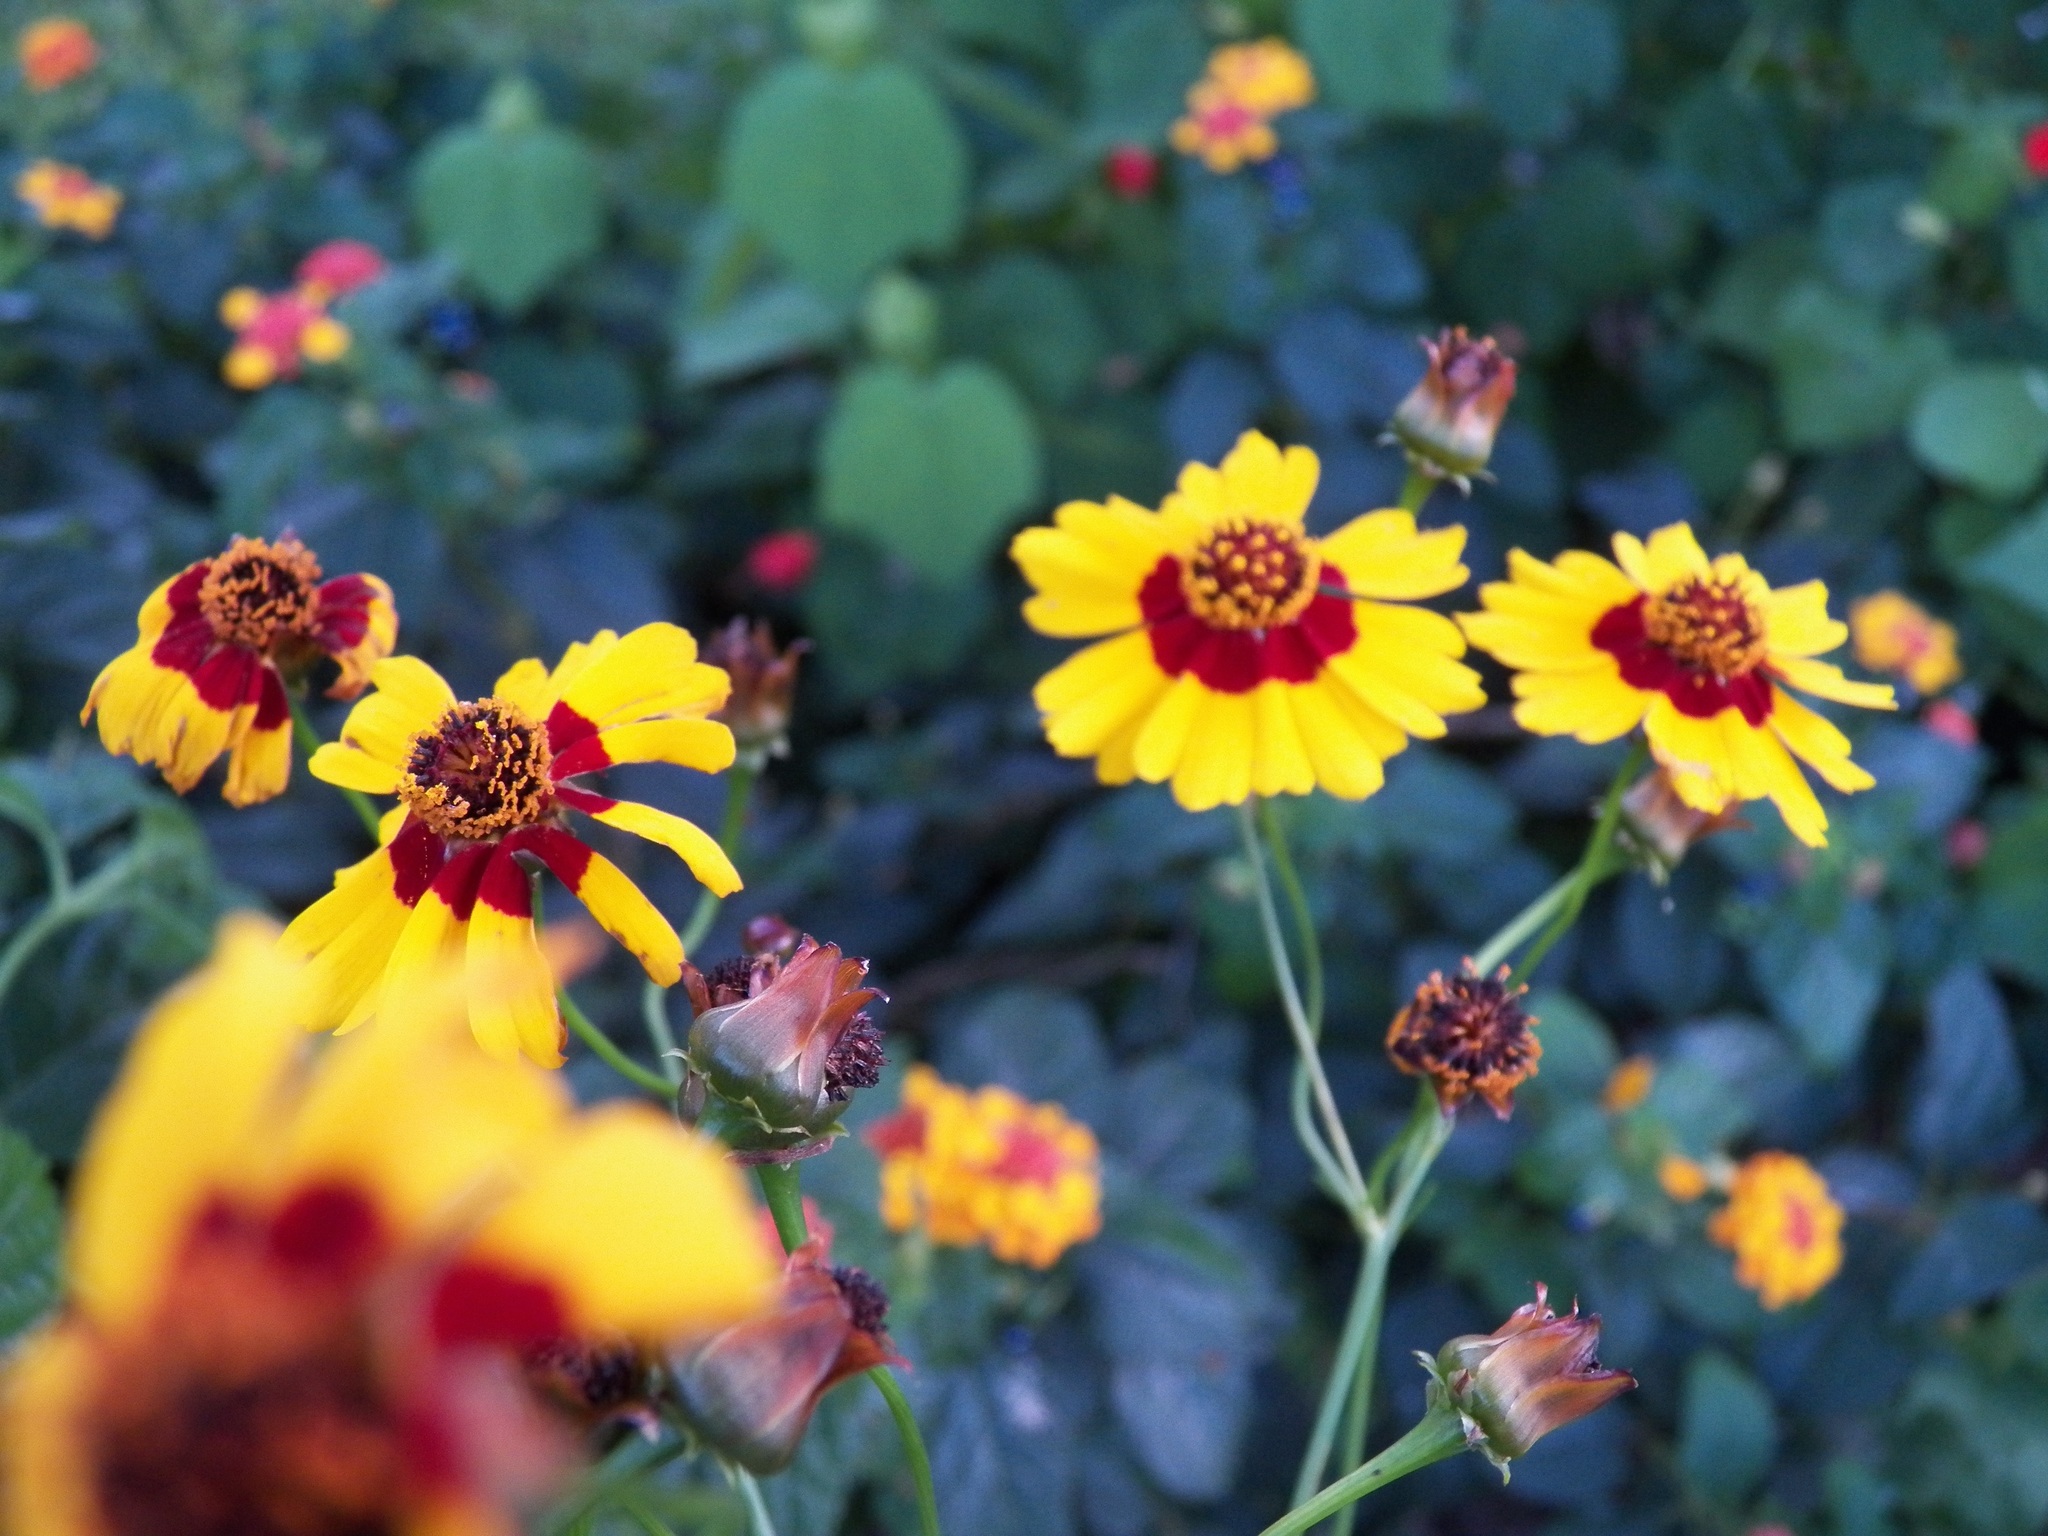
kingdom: Plantae
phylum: Tracheophyta
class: Magnoliopsida
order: Asterales
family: Asteraceae
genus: Coreopsis
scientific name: Coreopsis tinctoria
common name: Garden tickseed
